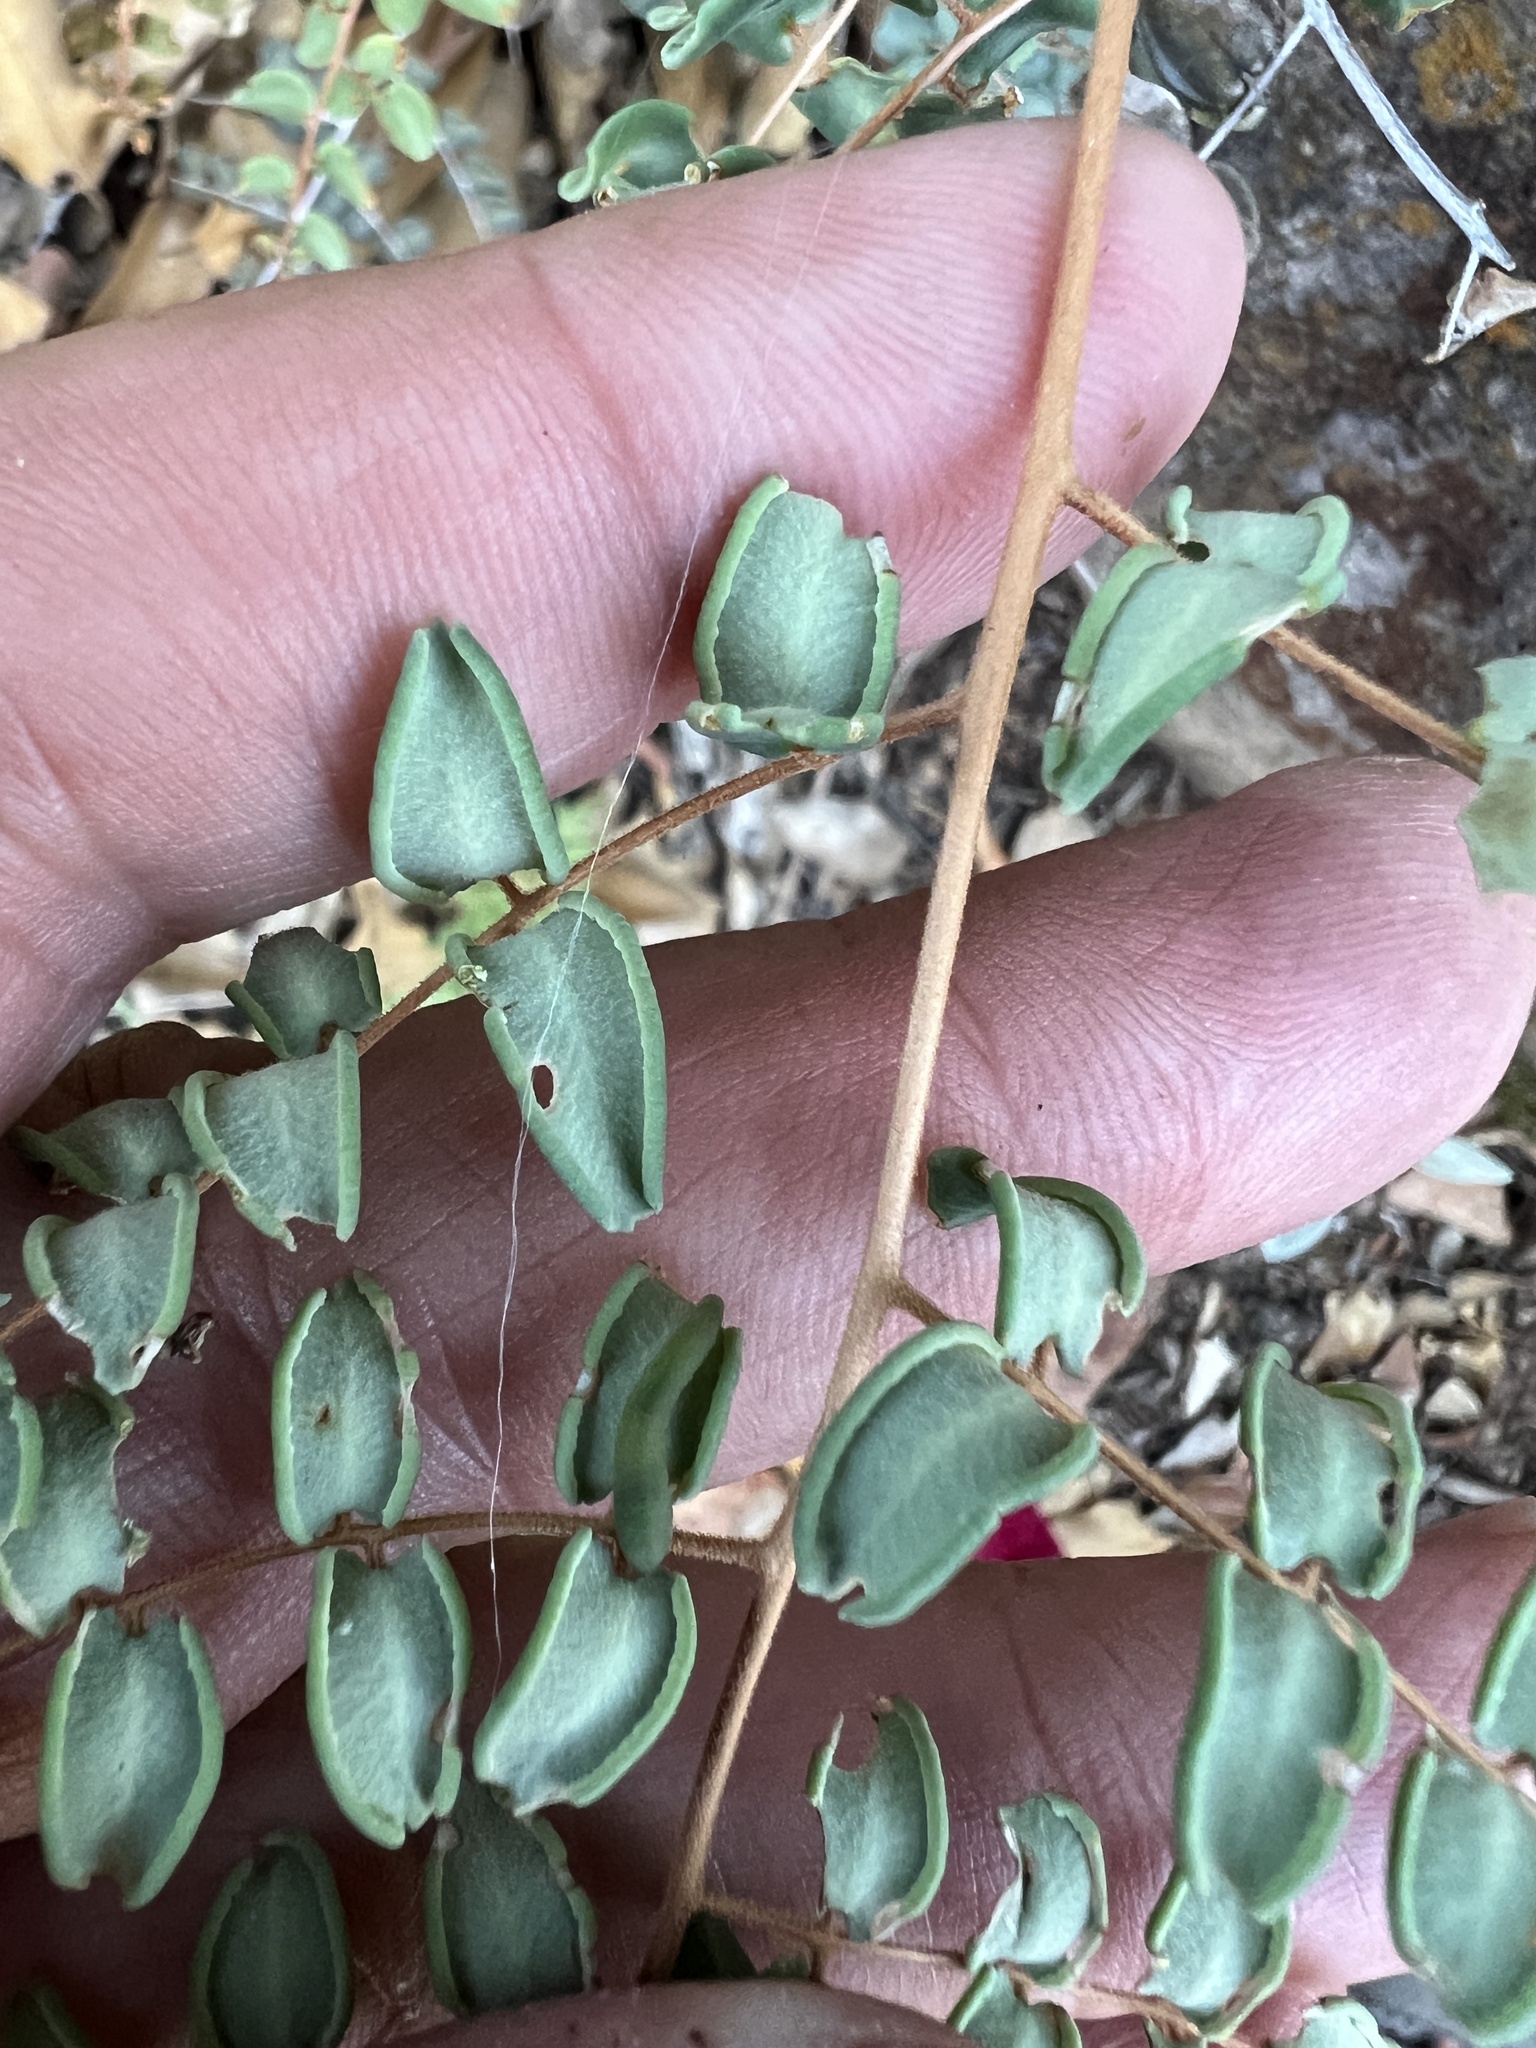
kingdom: Plantae
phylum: Tracheophyta
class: Polypodiopsida
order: Polypodiales
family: Pteridaceae
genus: Pellaea
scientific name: Pellaea ovata
